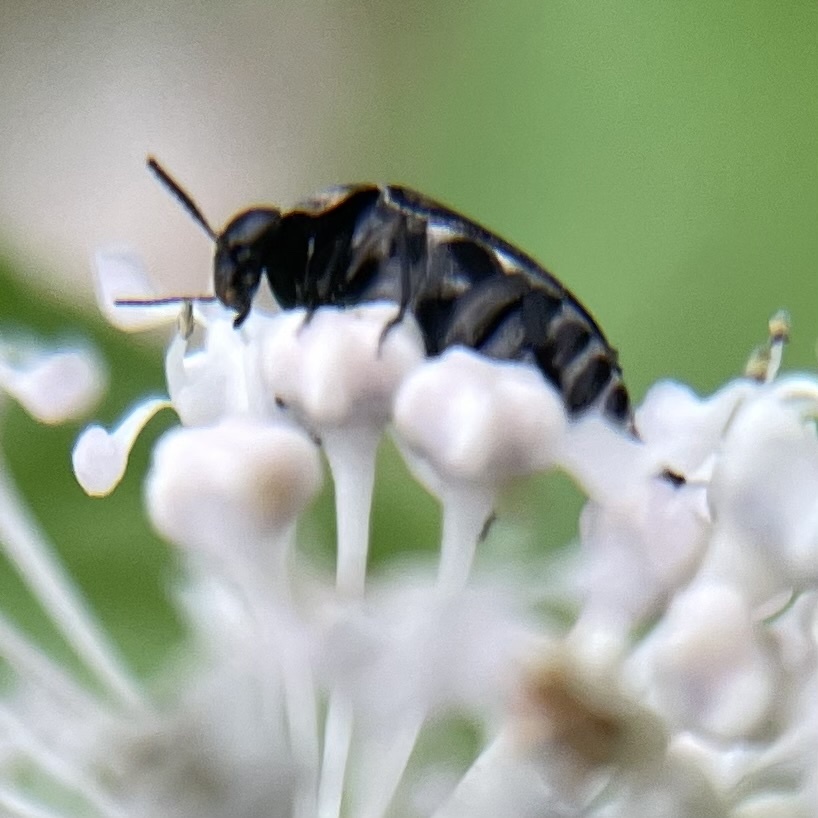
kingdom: Animalia
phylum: Arthropoda
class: Insecta
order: Coleoptera
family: Mordellidae
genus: Mordella
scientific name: Mordella marginata
